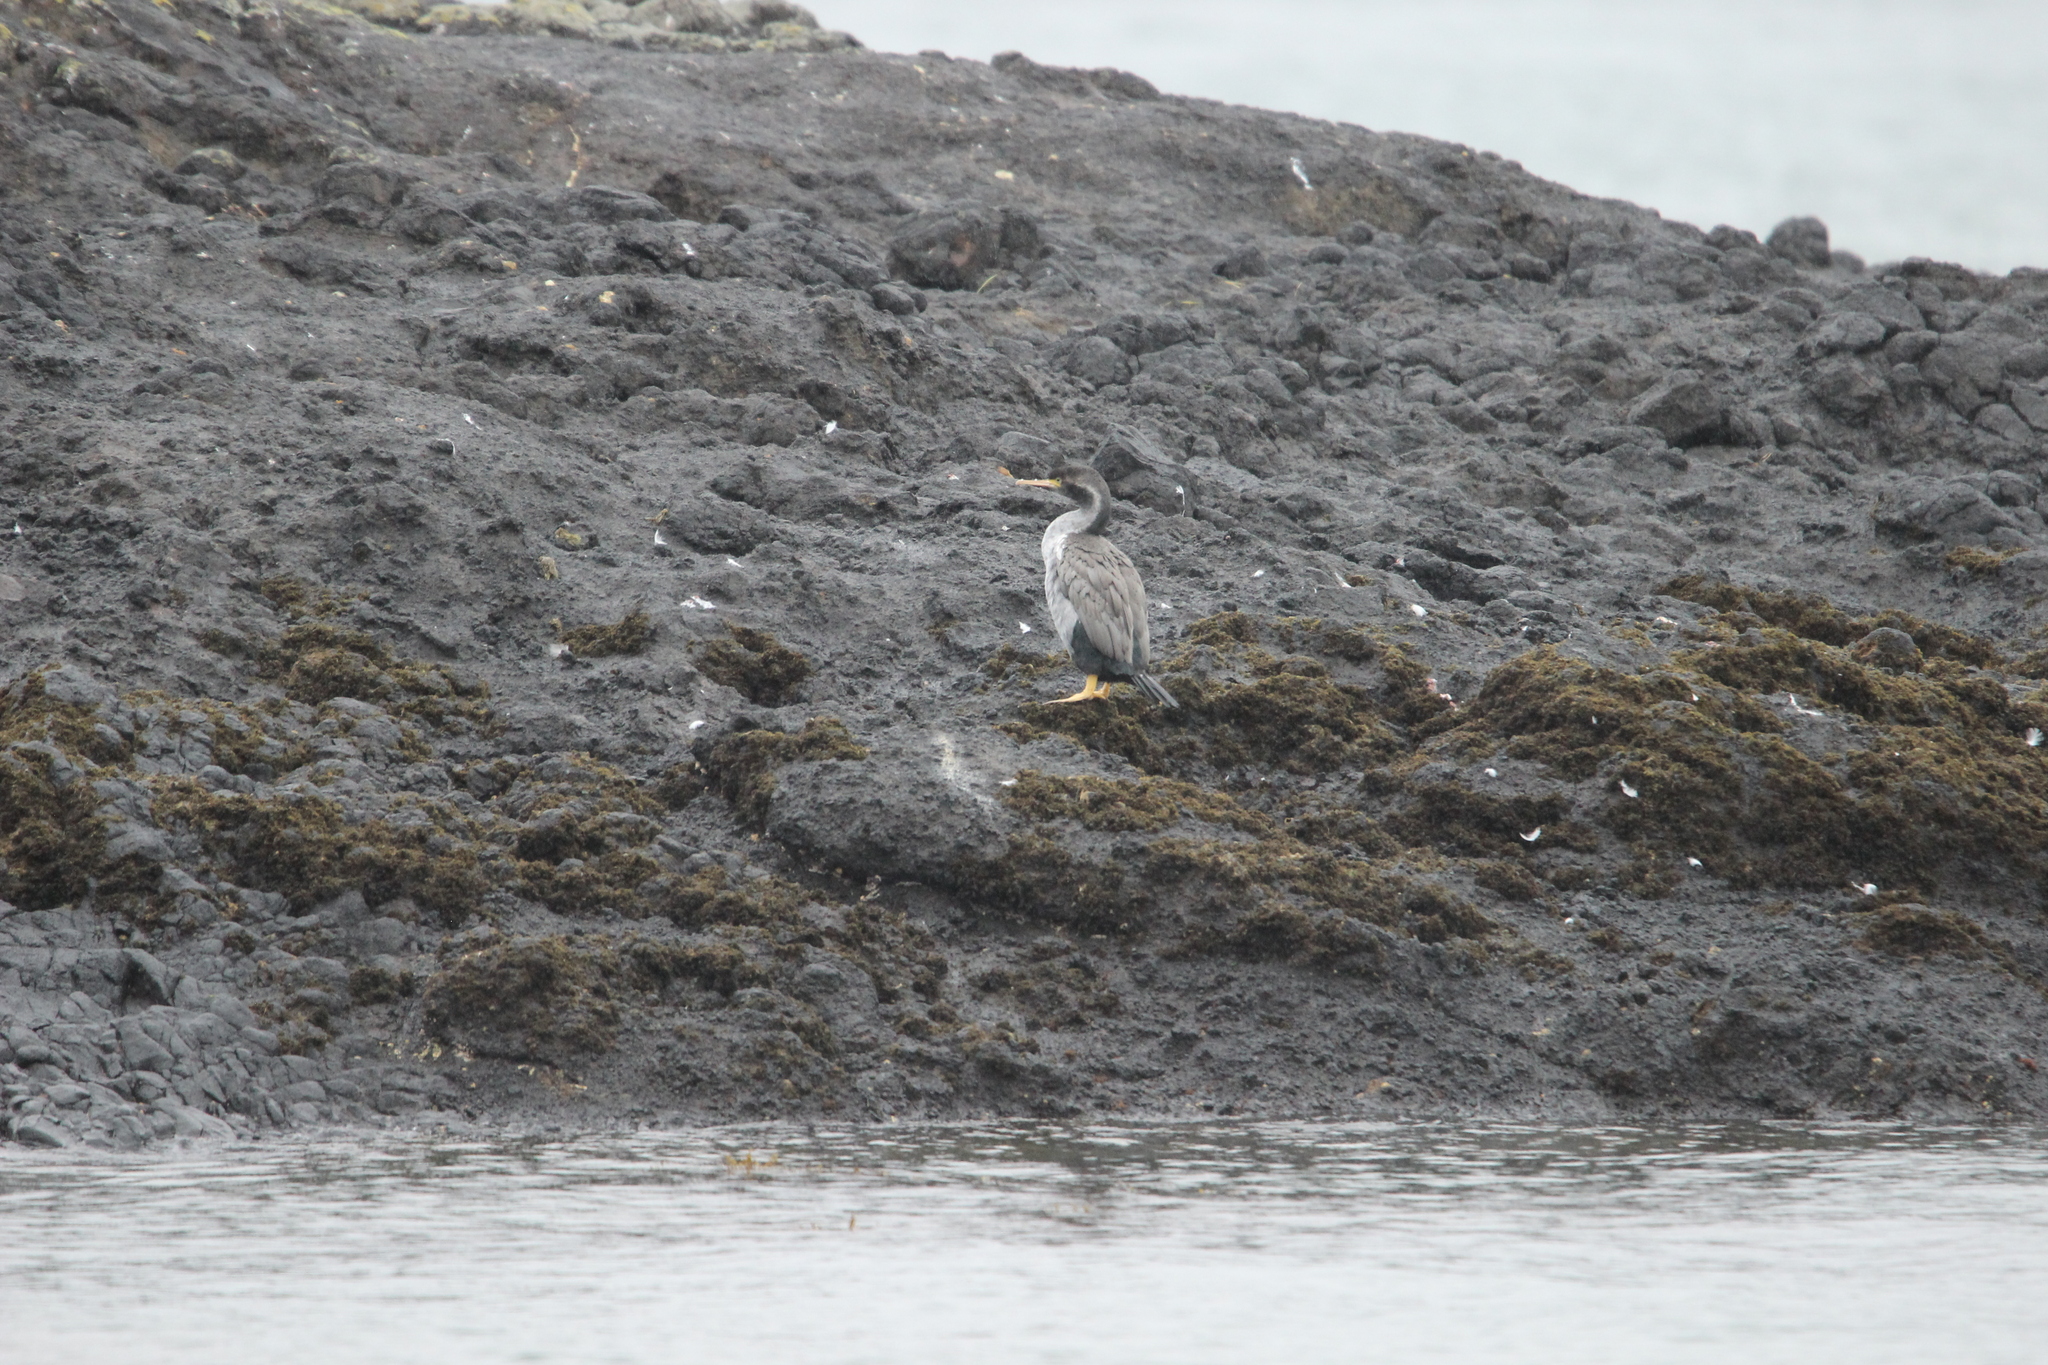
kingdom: Animalia
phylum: Chordata
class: Aves
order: Suliformes
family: Phalacrocoracidae
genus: Phalacrocorax
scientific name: Phalacrocorax punctatus
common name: Spotted shag
